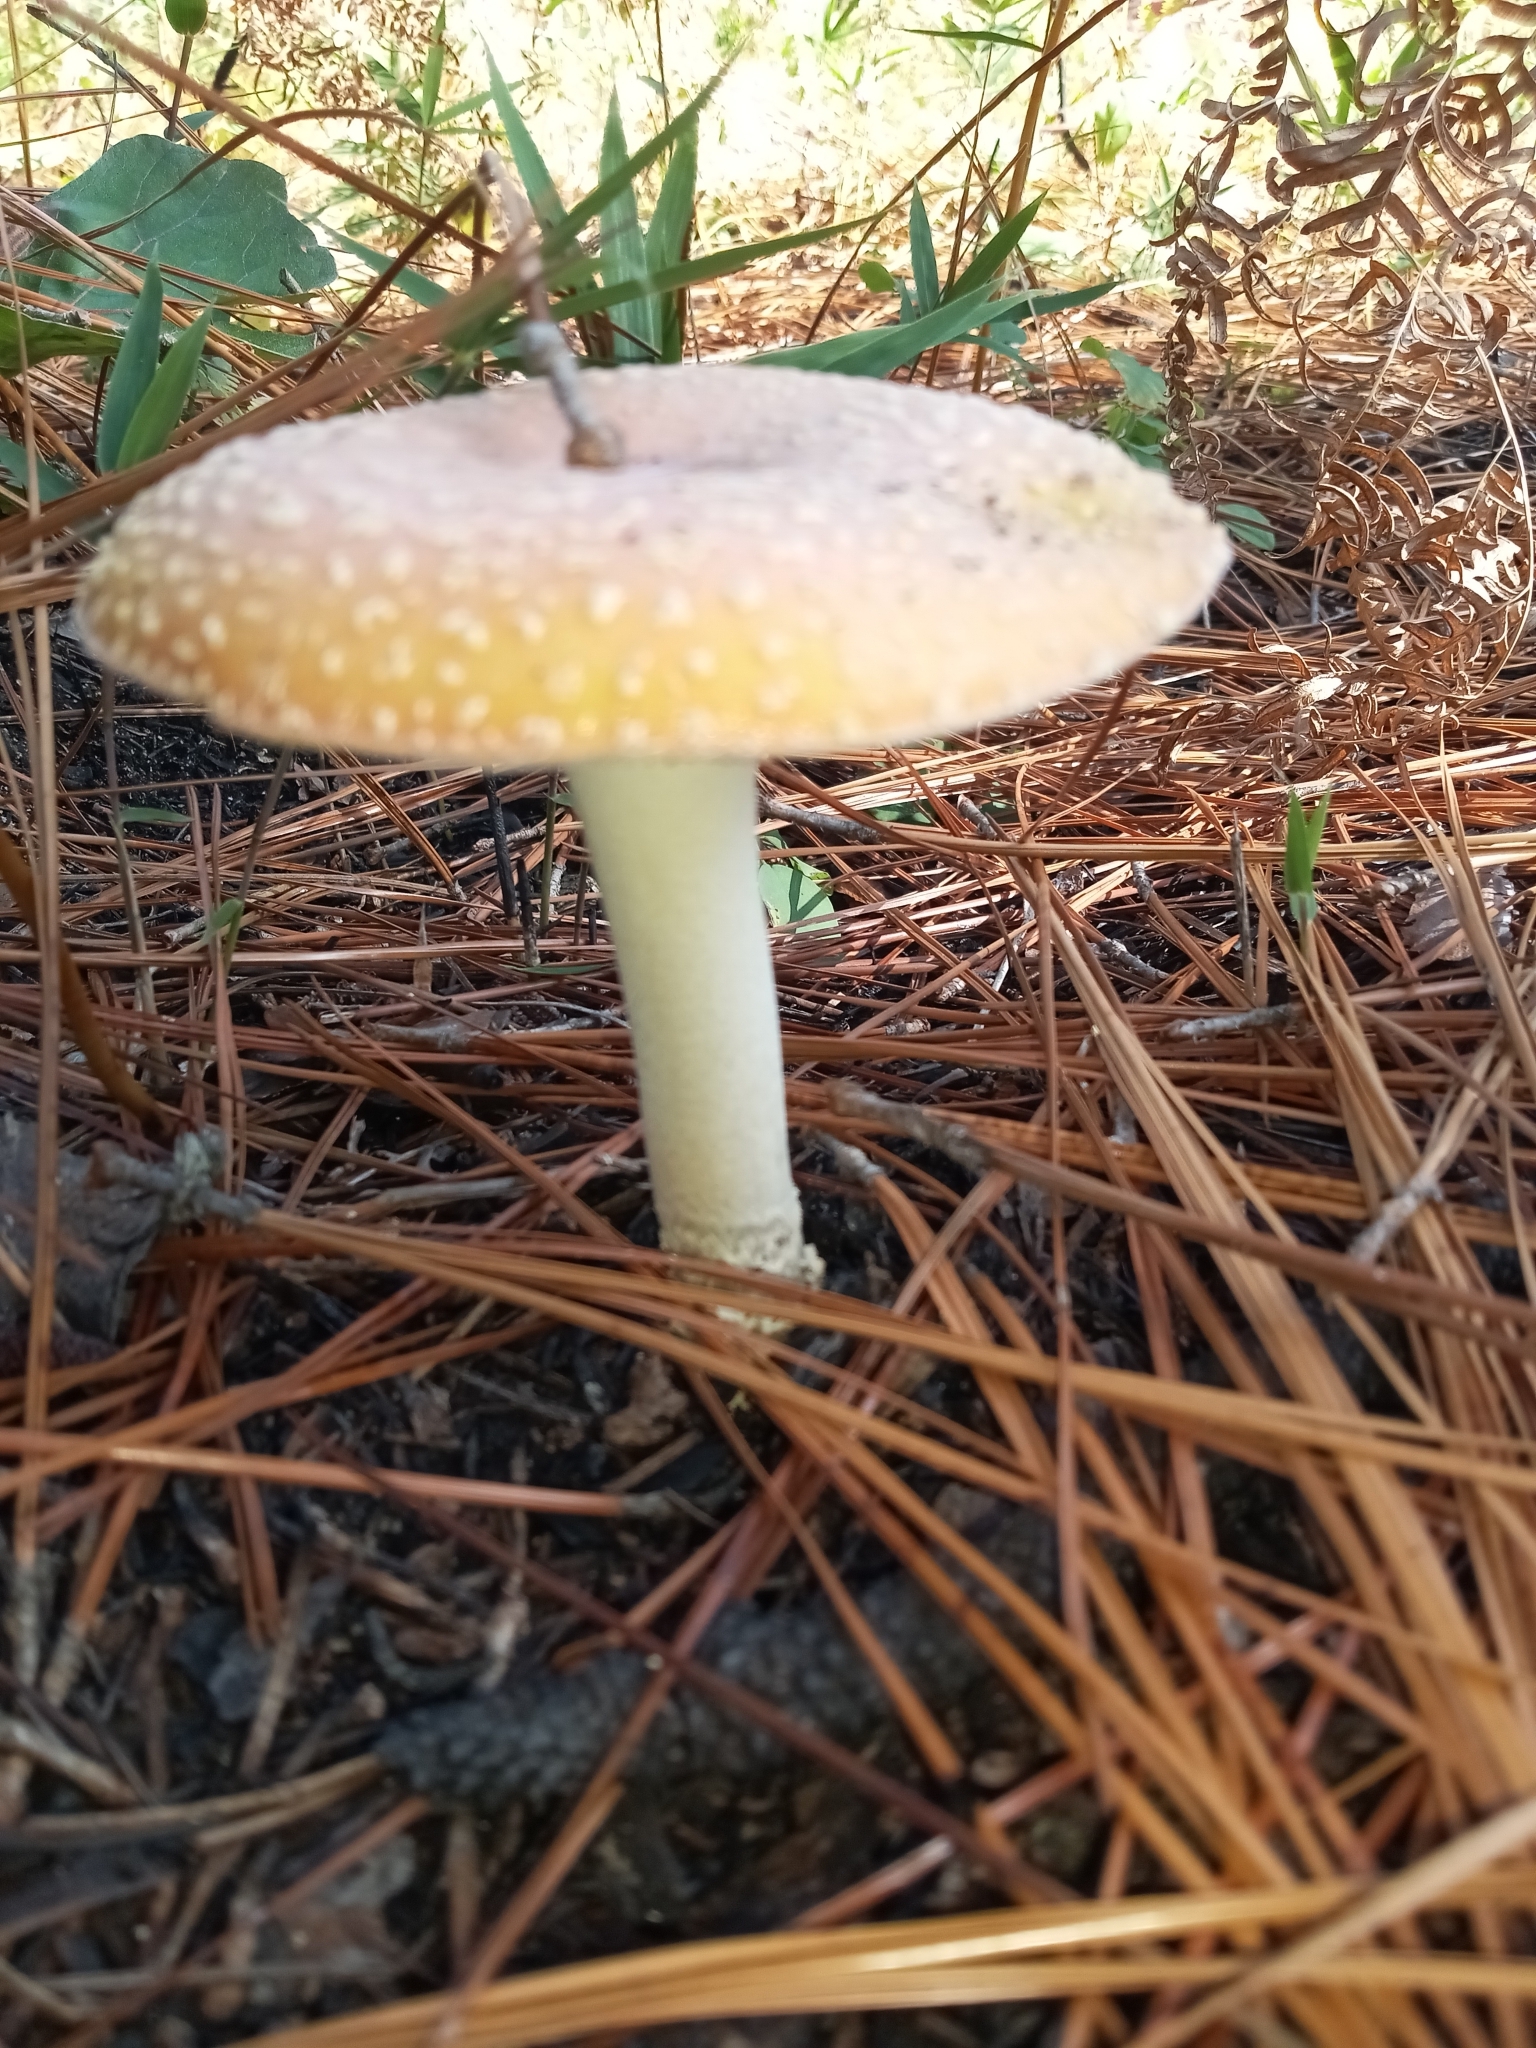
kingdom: Fungi
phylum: Basidiomycota
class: Agaricomycetes
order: Agaricales
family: Amanitaceae
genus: Amanita
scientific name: Amanita persicina
